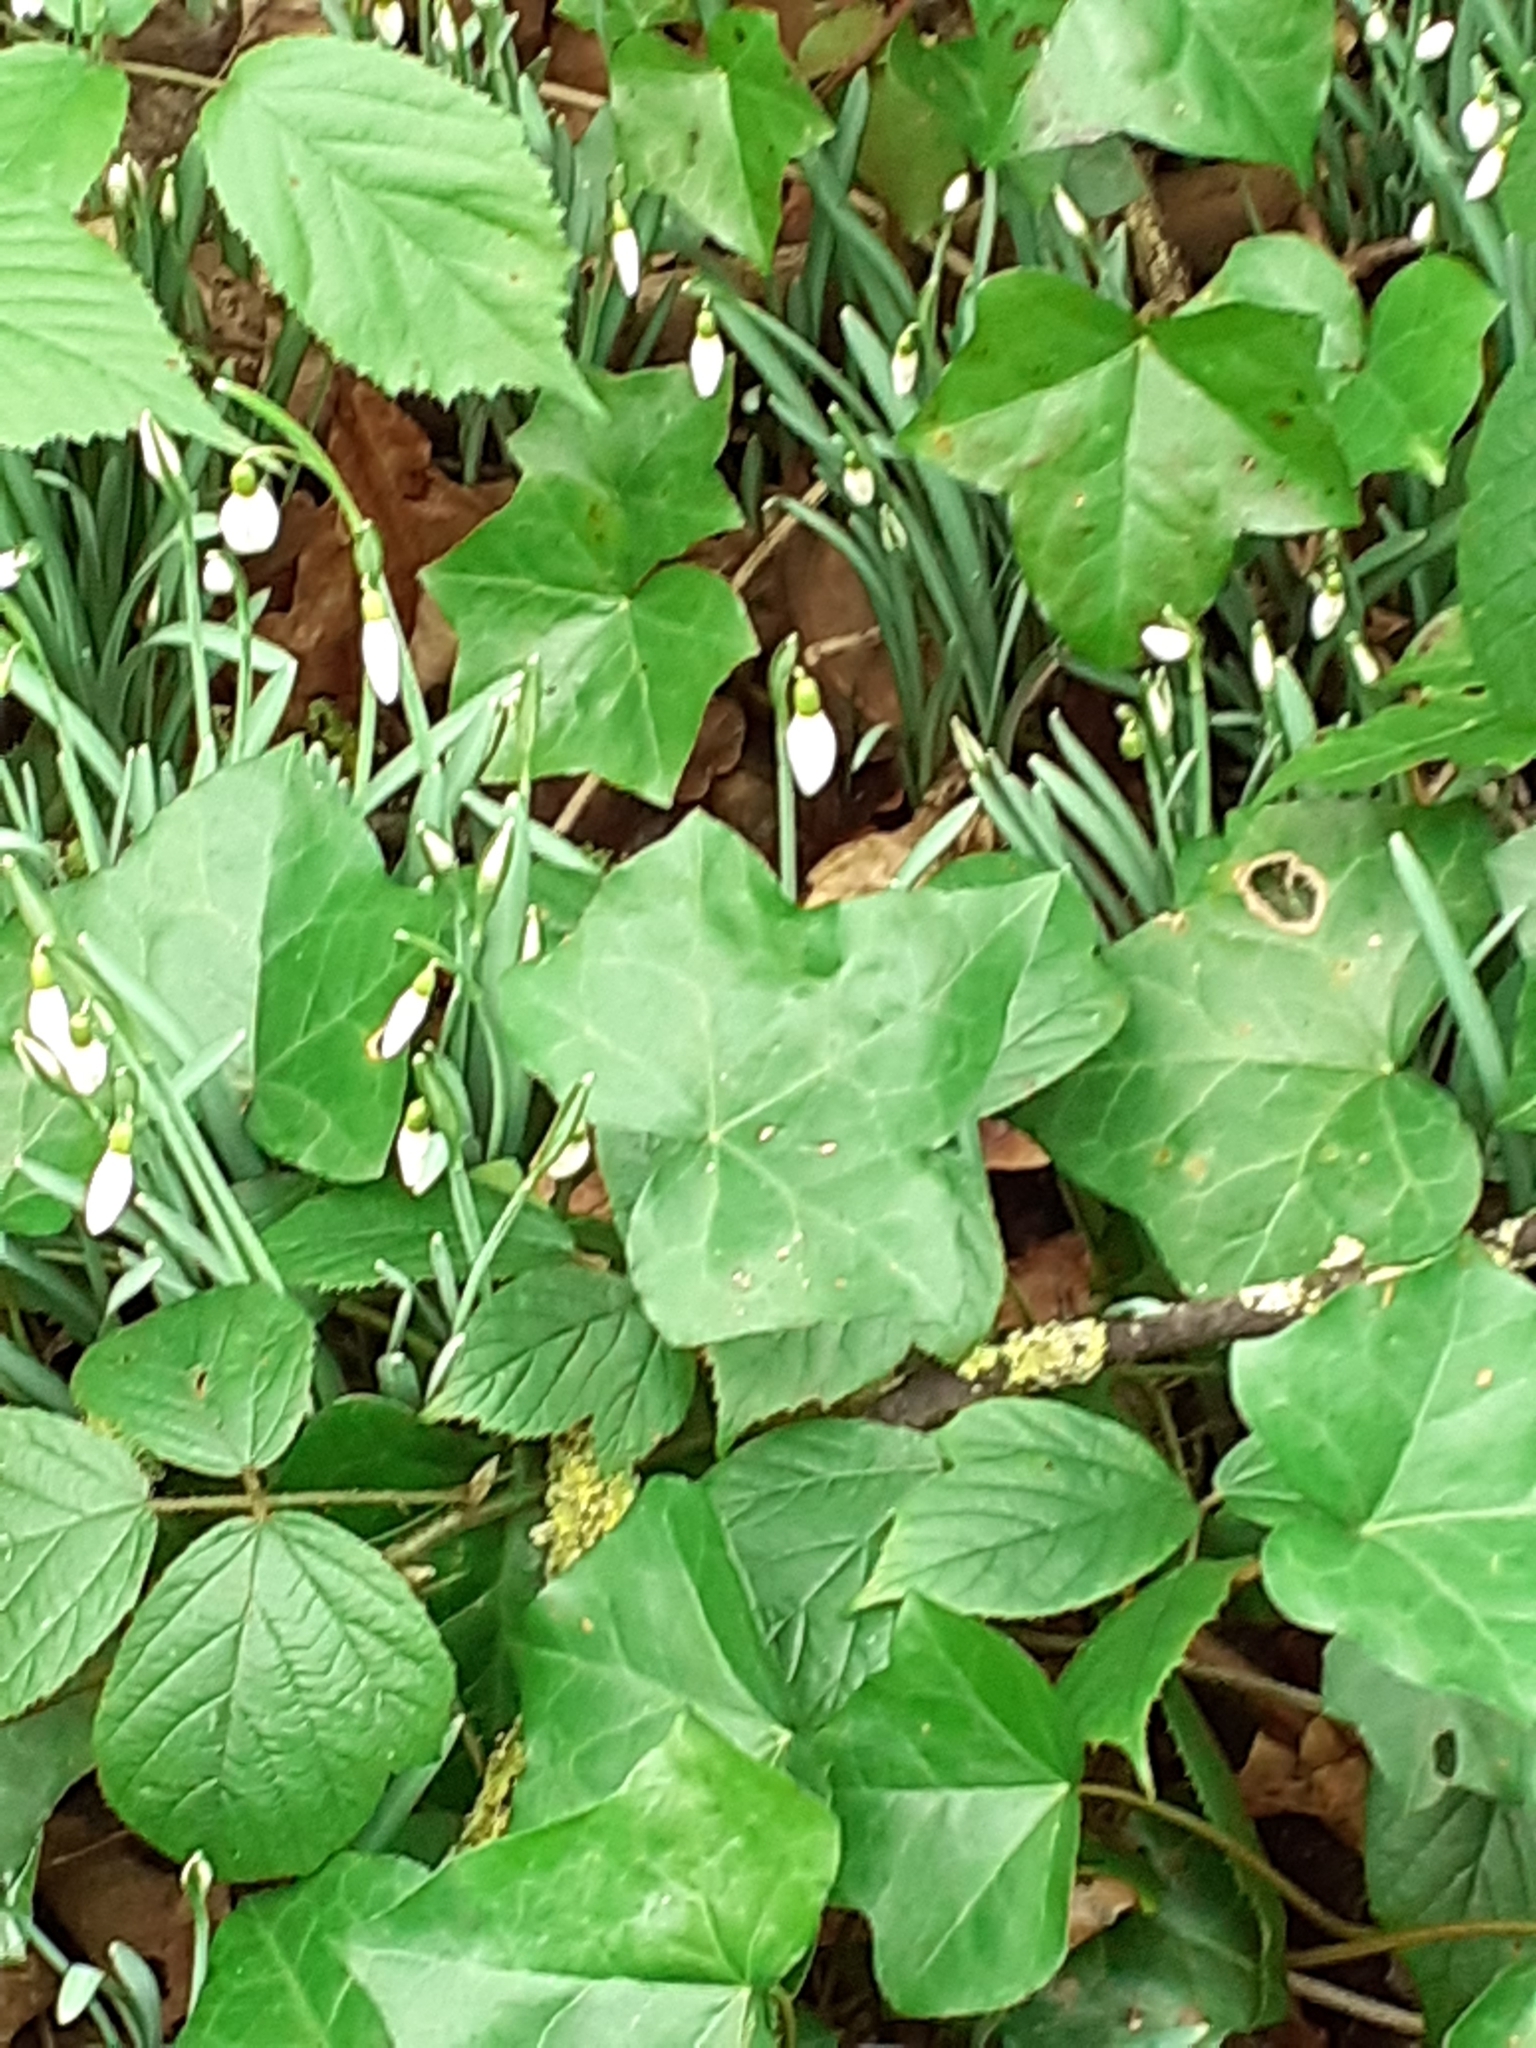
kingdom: Plantae
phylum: Tracheophyta
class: Liliopsida
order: Asparagales
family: Amaryllidaceae
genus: Galanthus
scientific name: Galanthus nivalis
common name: Snowdrop
